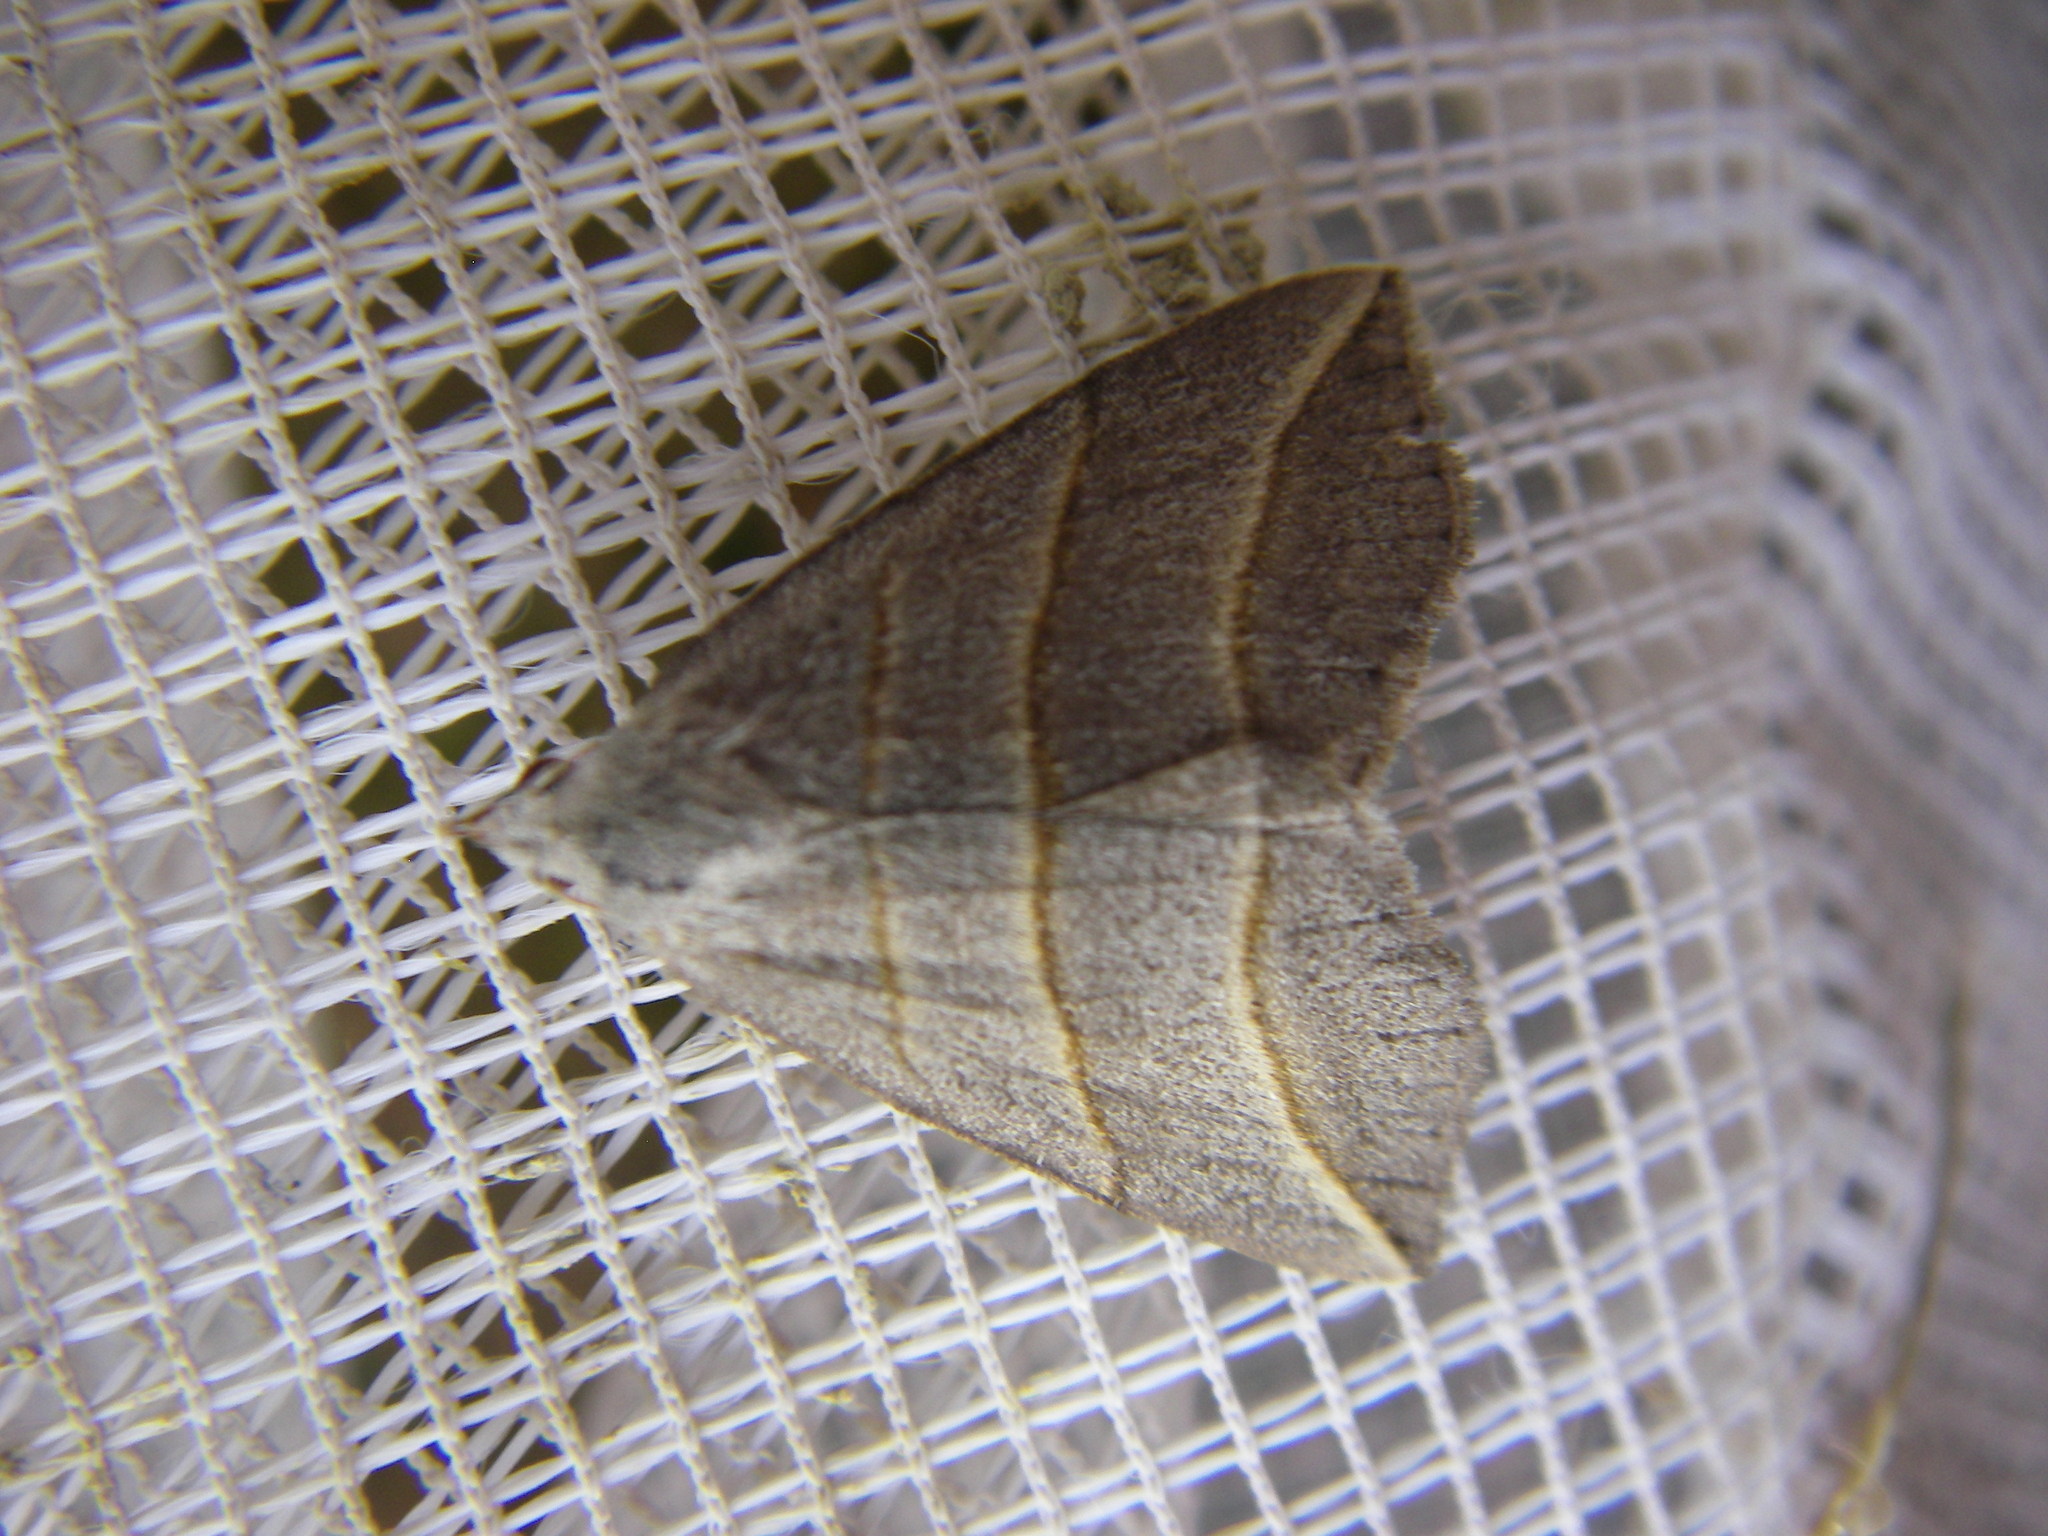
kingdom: Animalia
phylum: Arthropoda
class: Insecta
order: Lepidoptera
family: Erebidae
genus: Colobochyla
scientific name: Colobochyla salicalis
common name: Lesser belle
